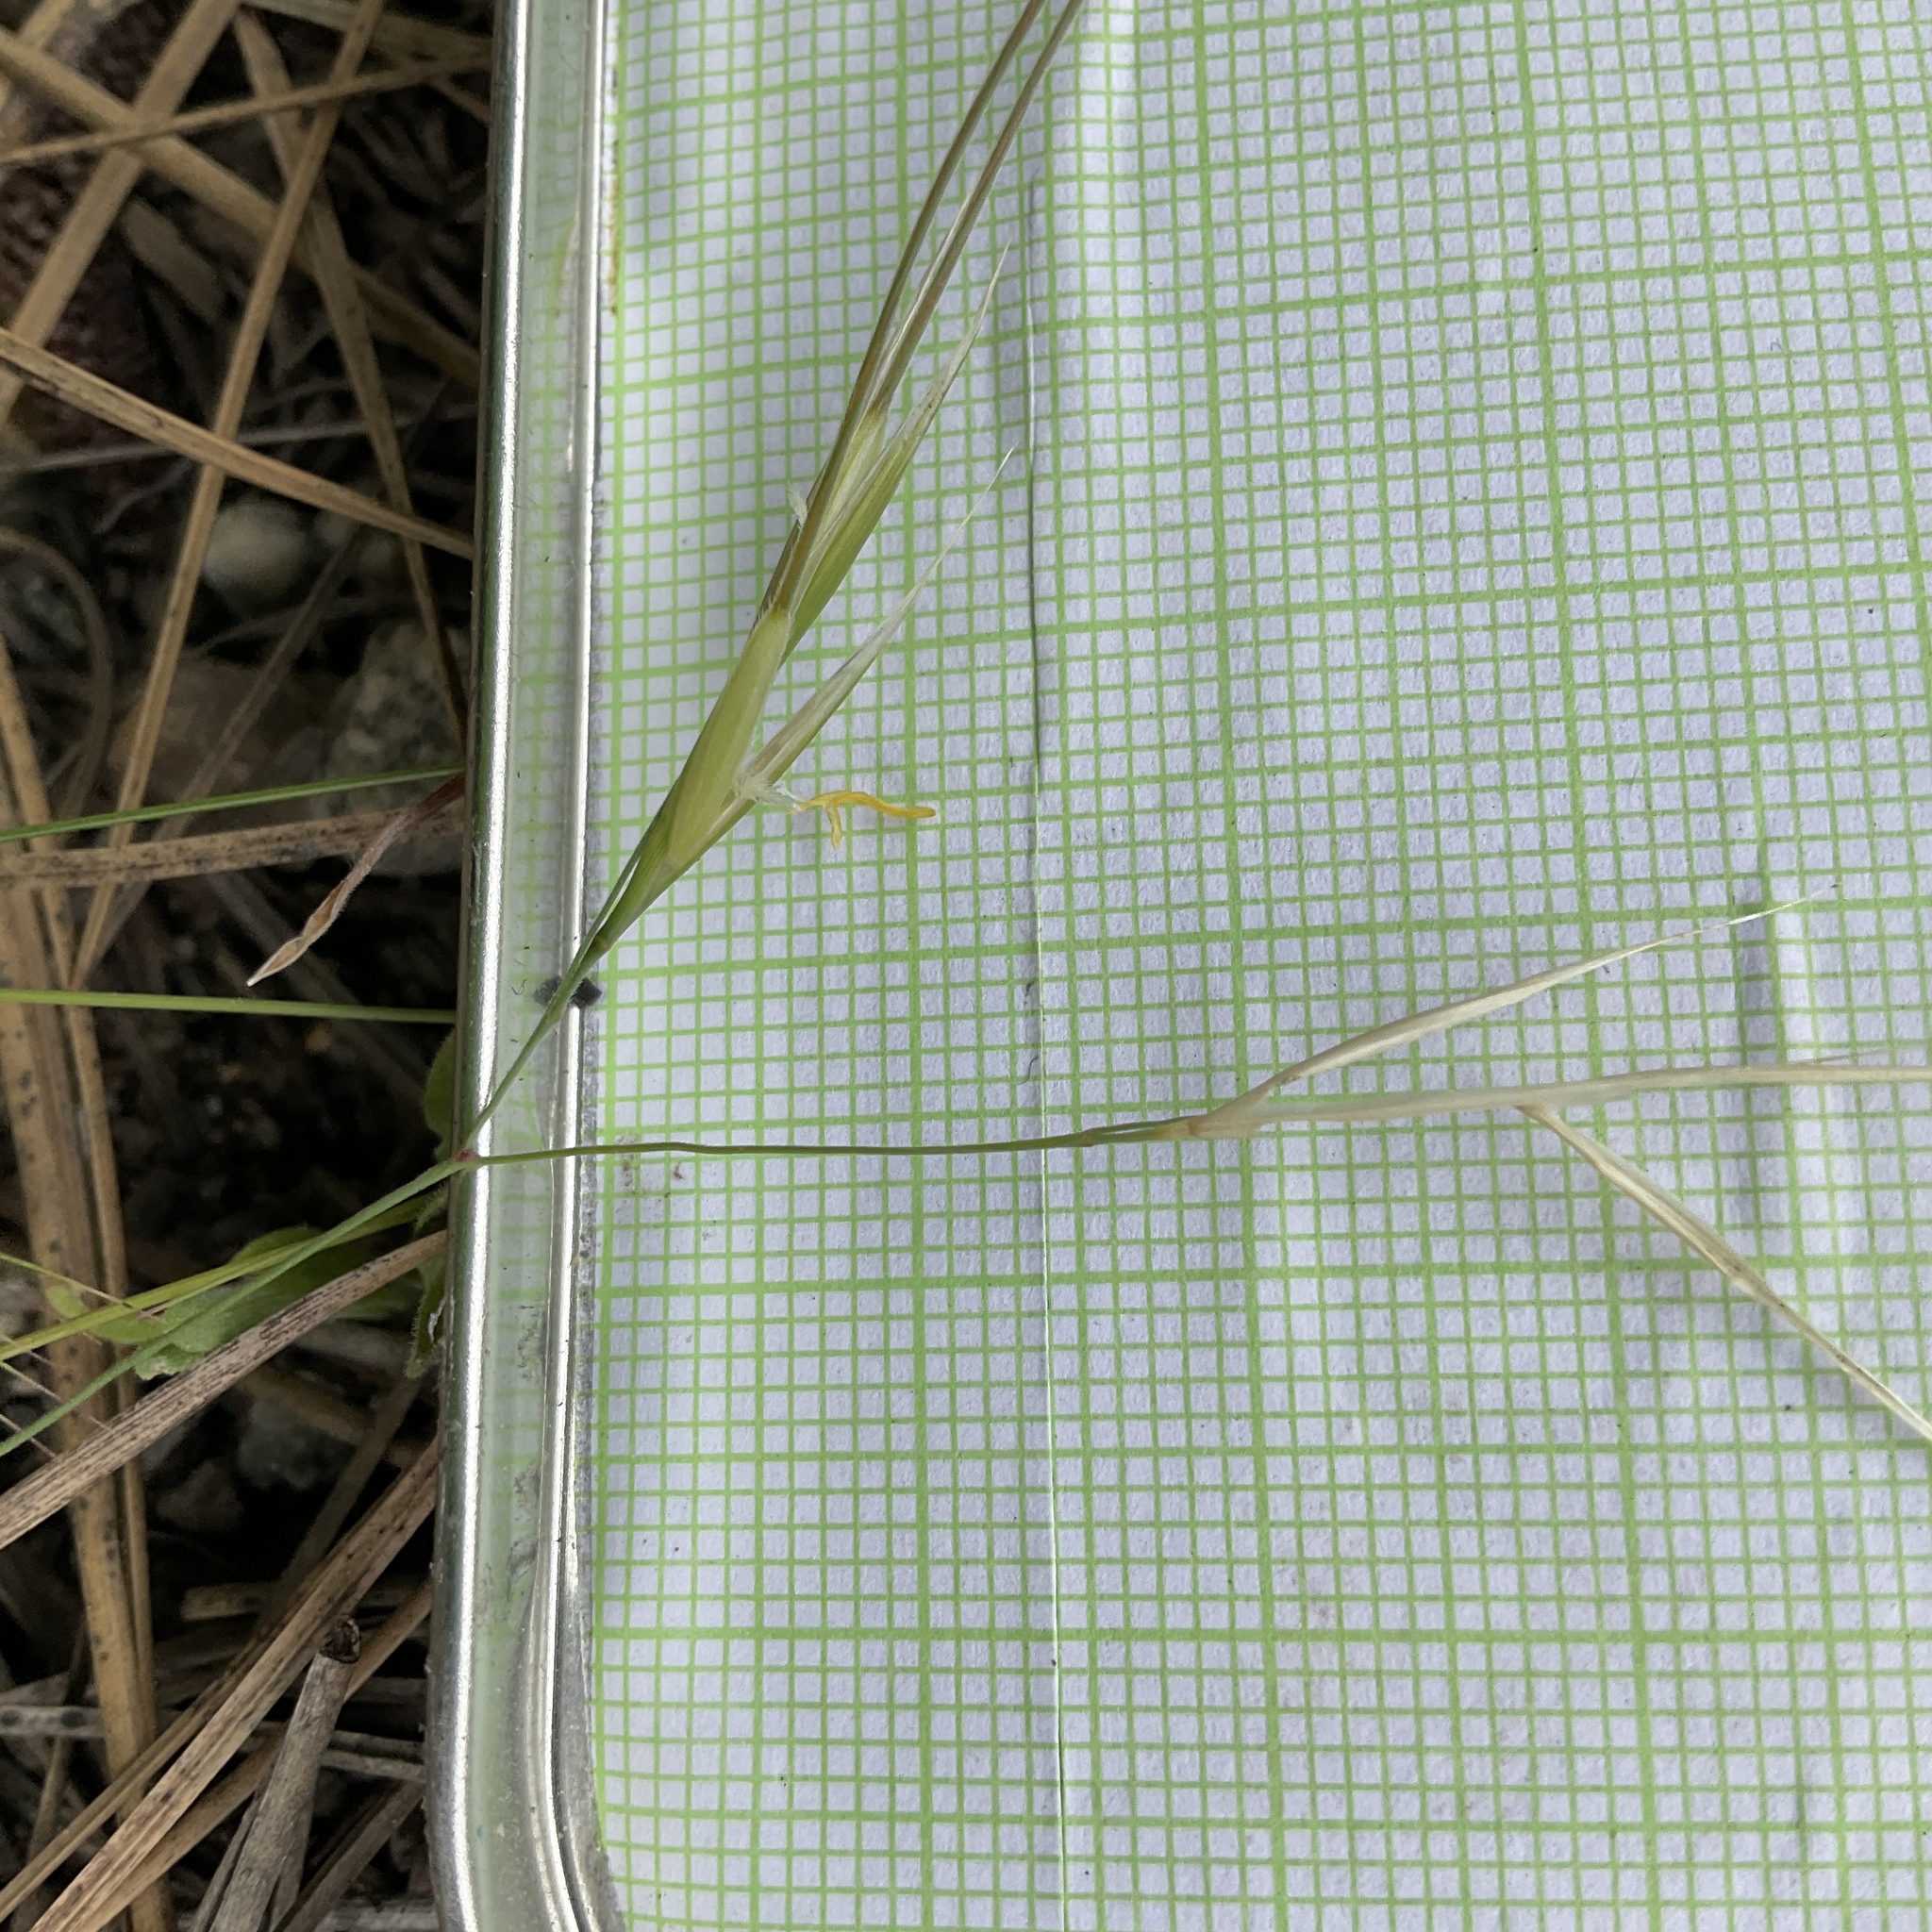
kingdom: Plantae
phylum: Tracheophyta
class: Liliopsida
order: Poales
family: Poaceae
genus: Hesperostipa
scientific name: Hesperostipa comata
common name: Needle-and-thread grass
